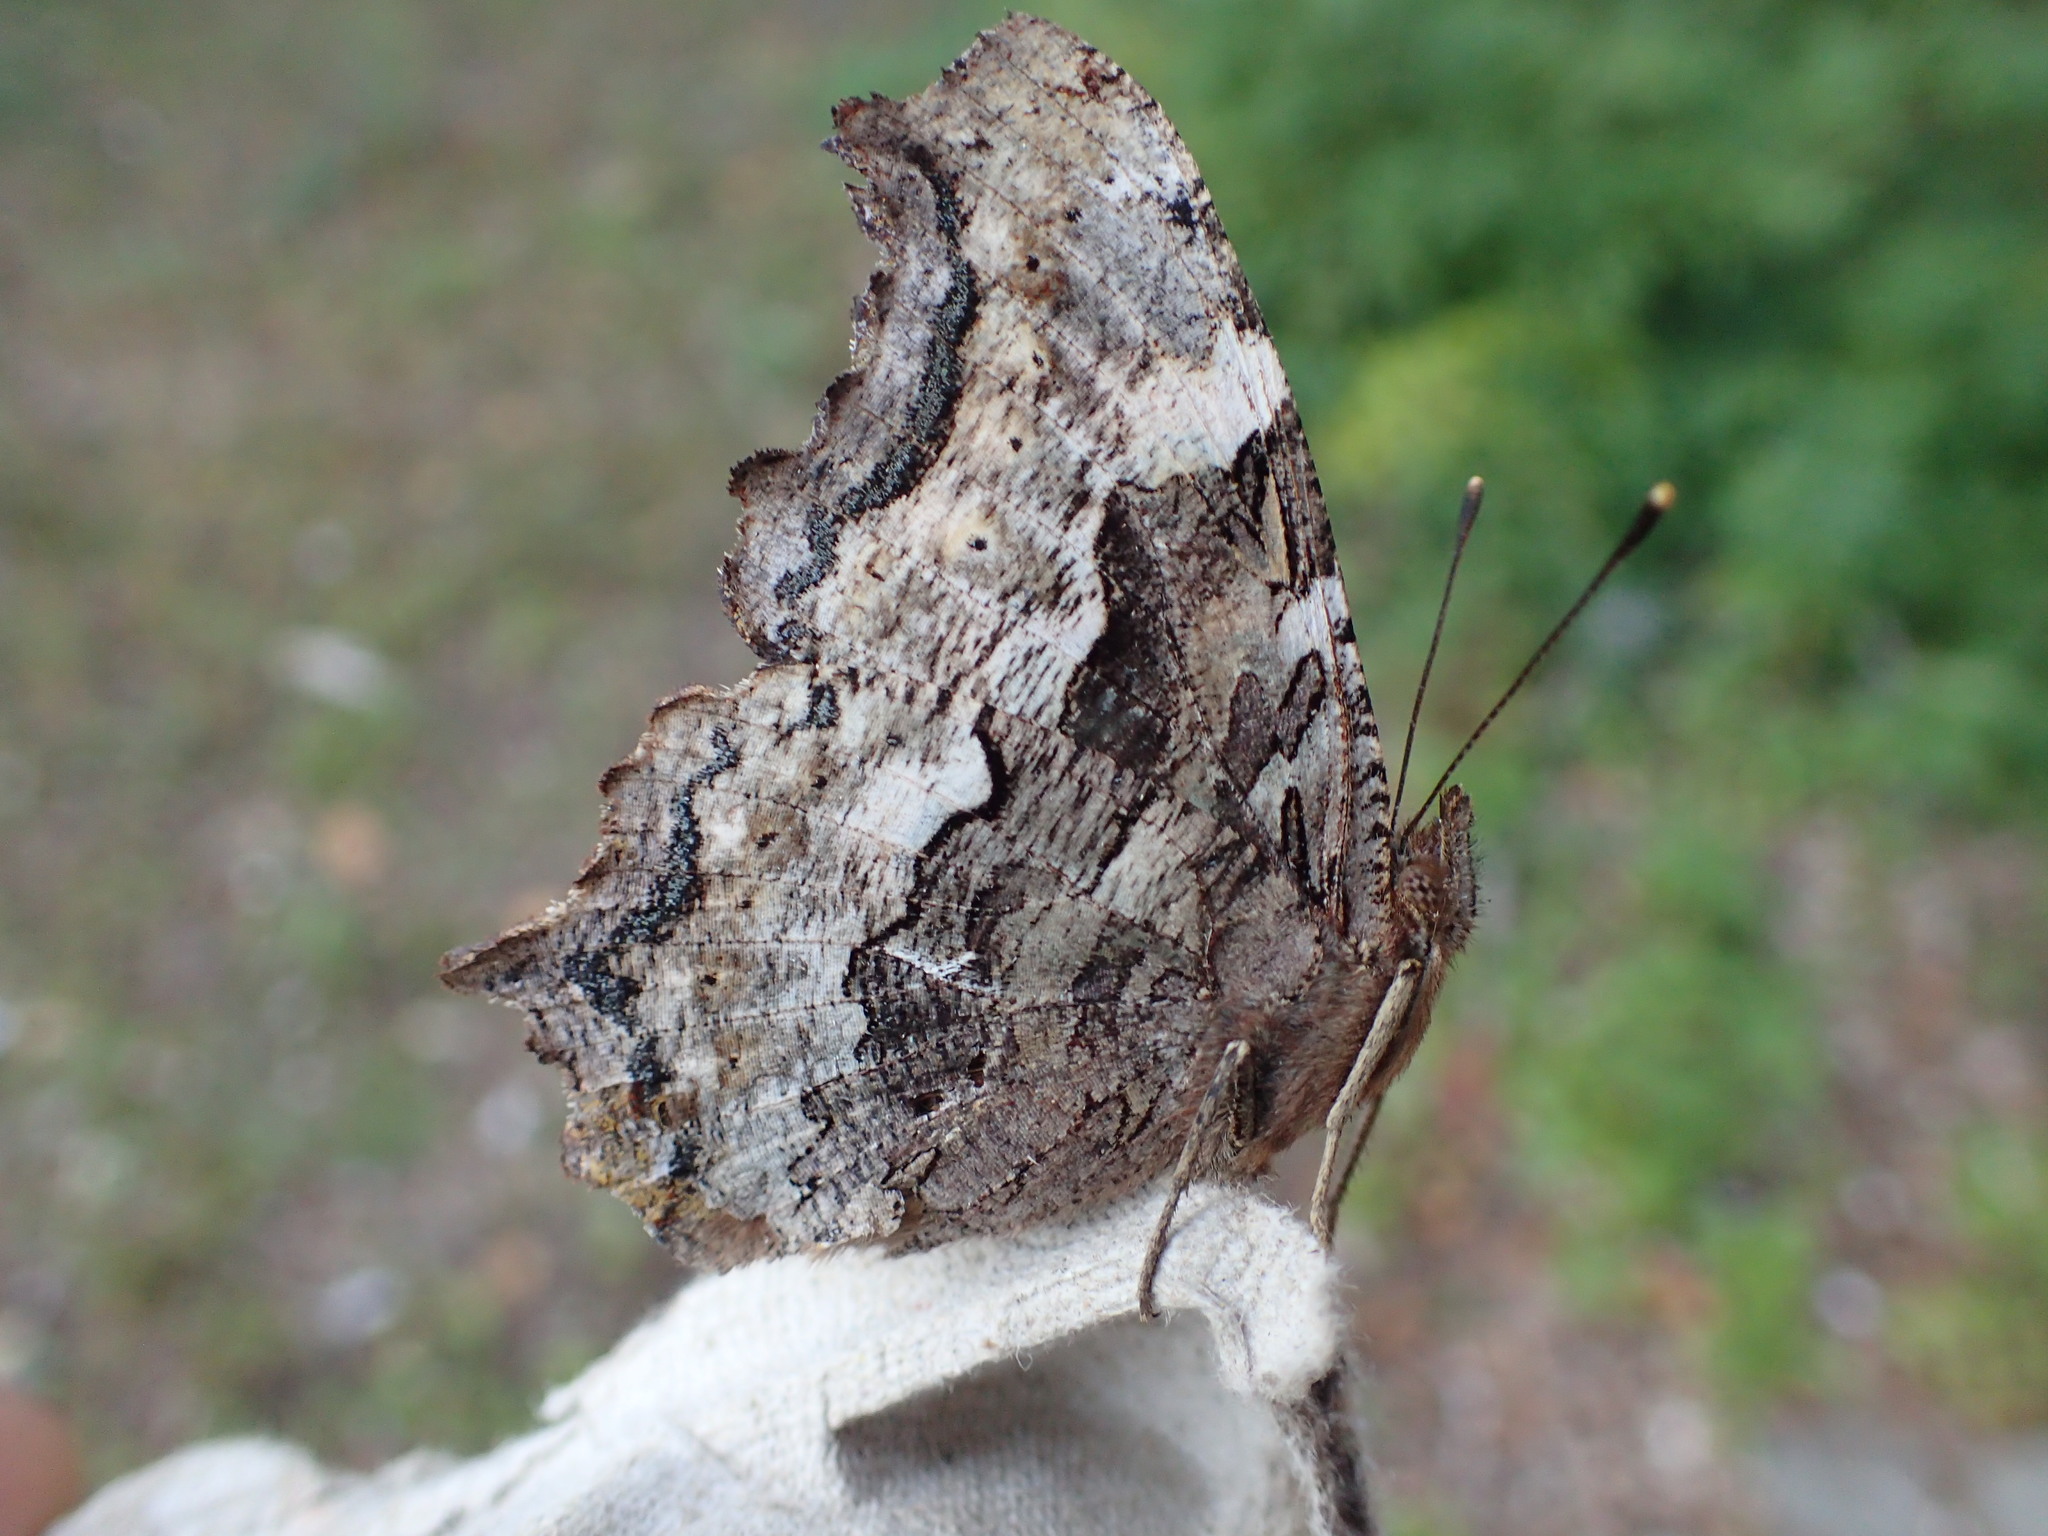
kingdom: Animalia
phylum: Arthropoda
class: Insecta
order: Lepidoptera
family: Nymphalidae
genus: Polygonia
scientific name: Polygonia vaualbum
